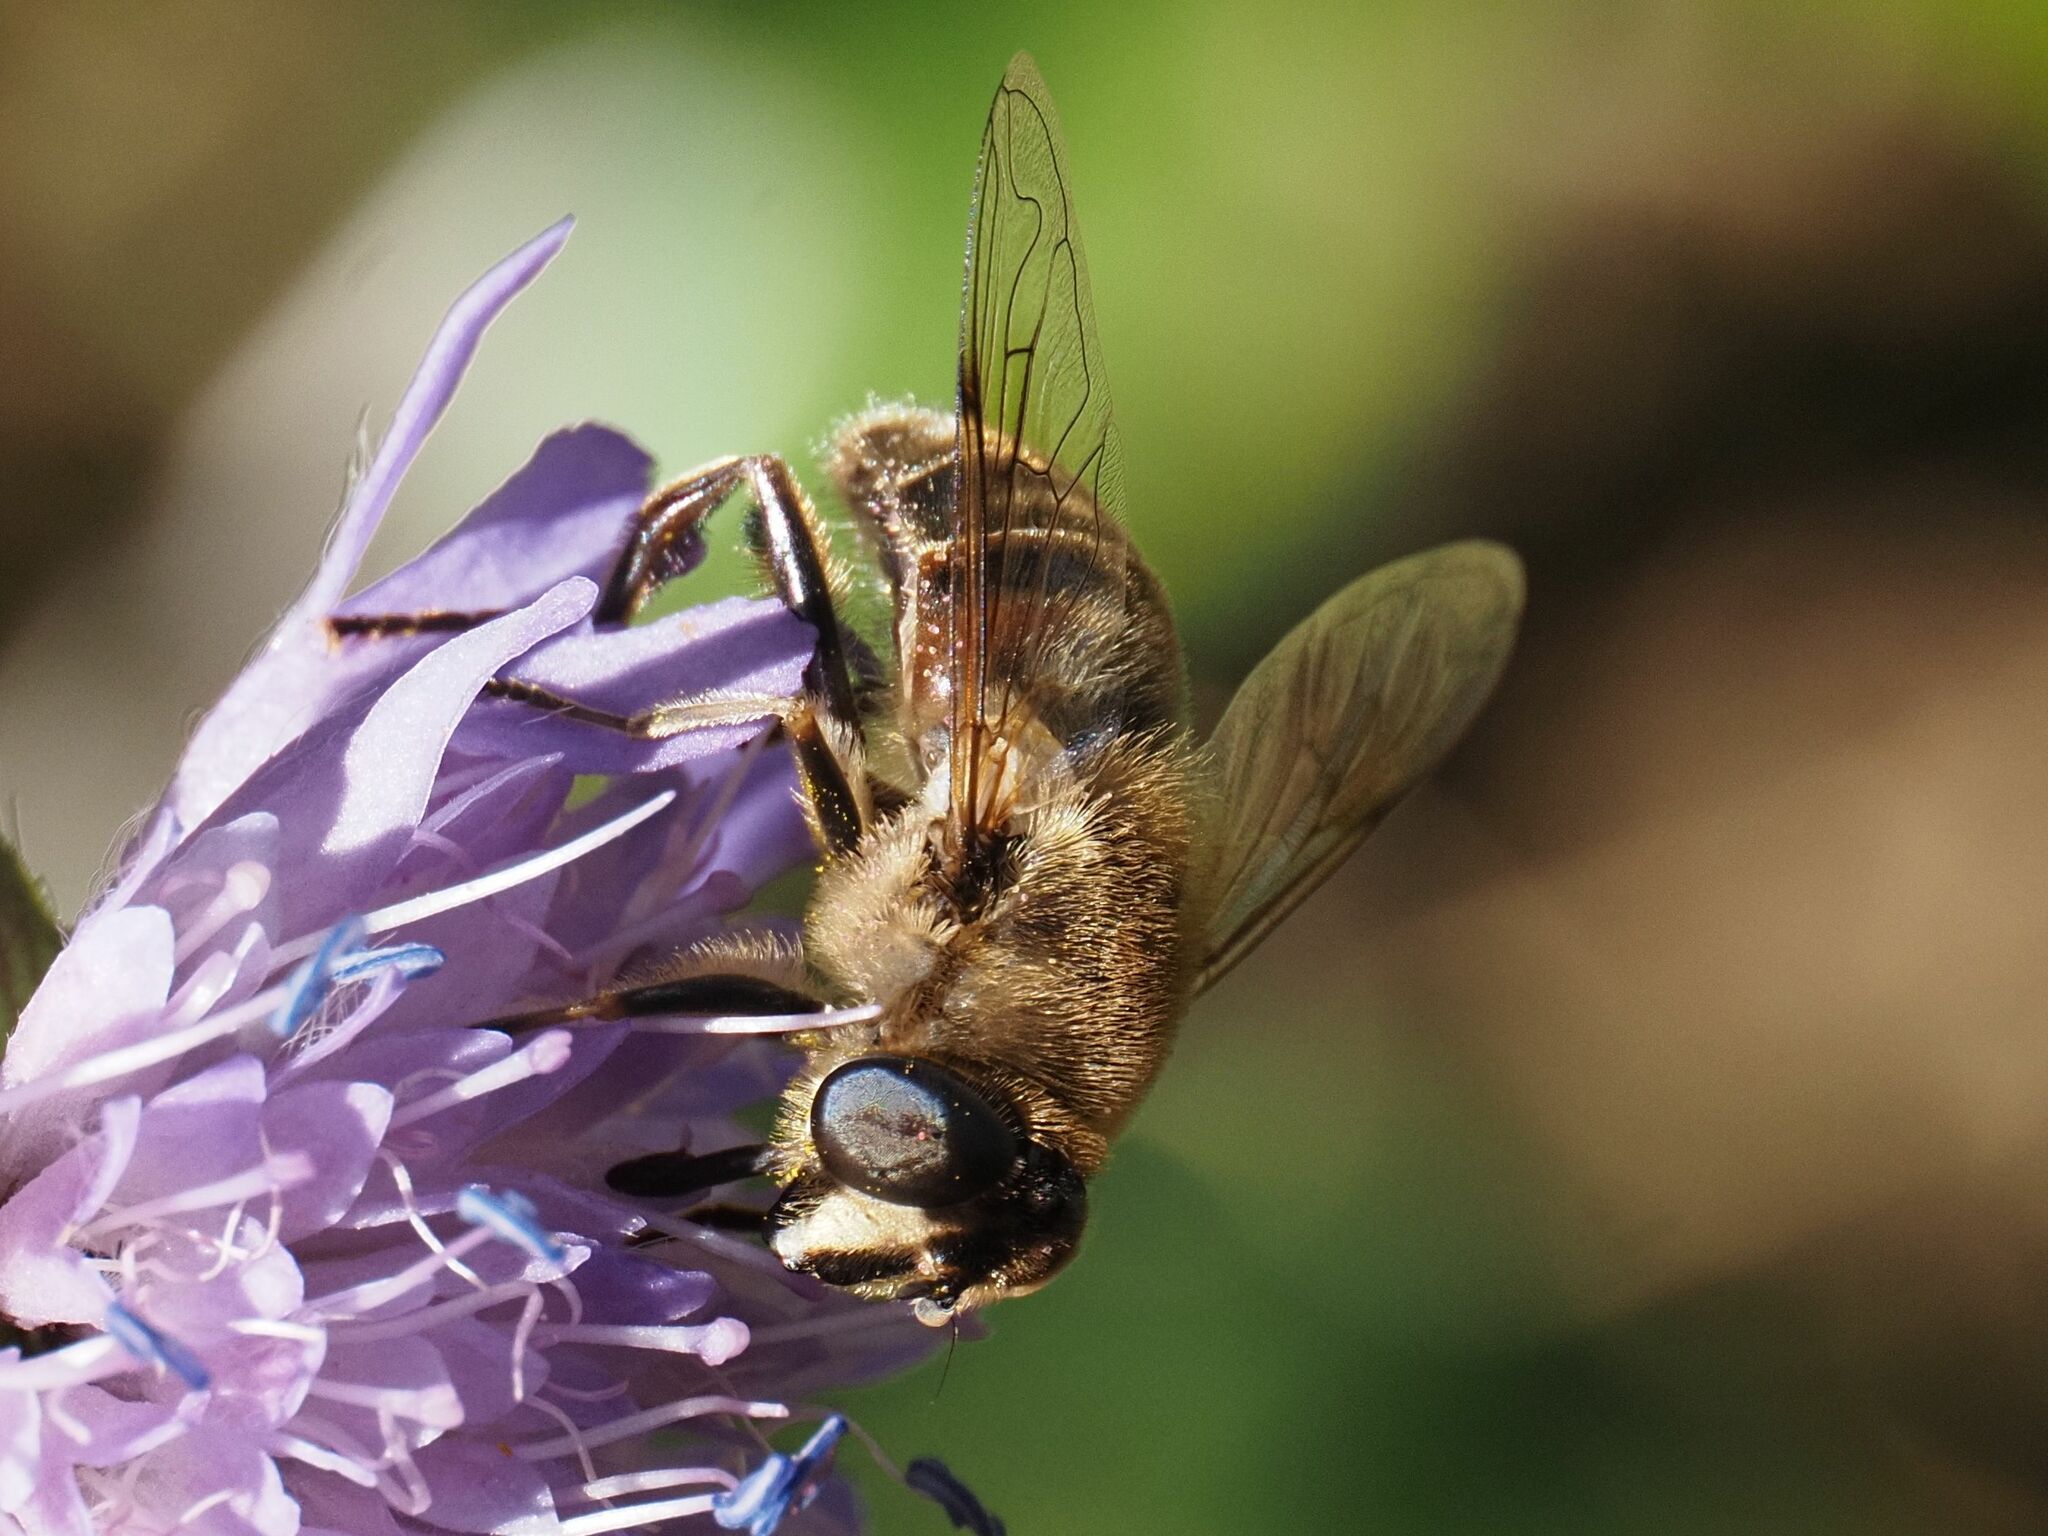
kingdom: Animalia
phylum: Arthropoda
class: Insecta
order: Diptera
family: Syrphidae
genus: Eristalis
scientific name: Eristalis tenax
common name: Drone fly
